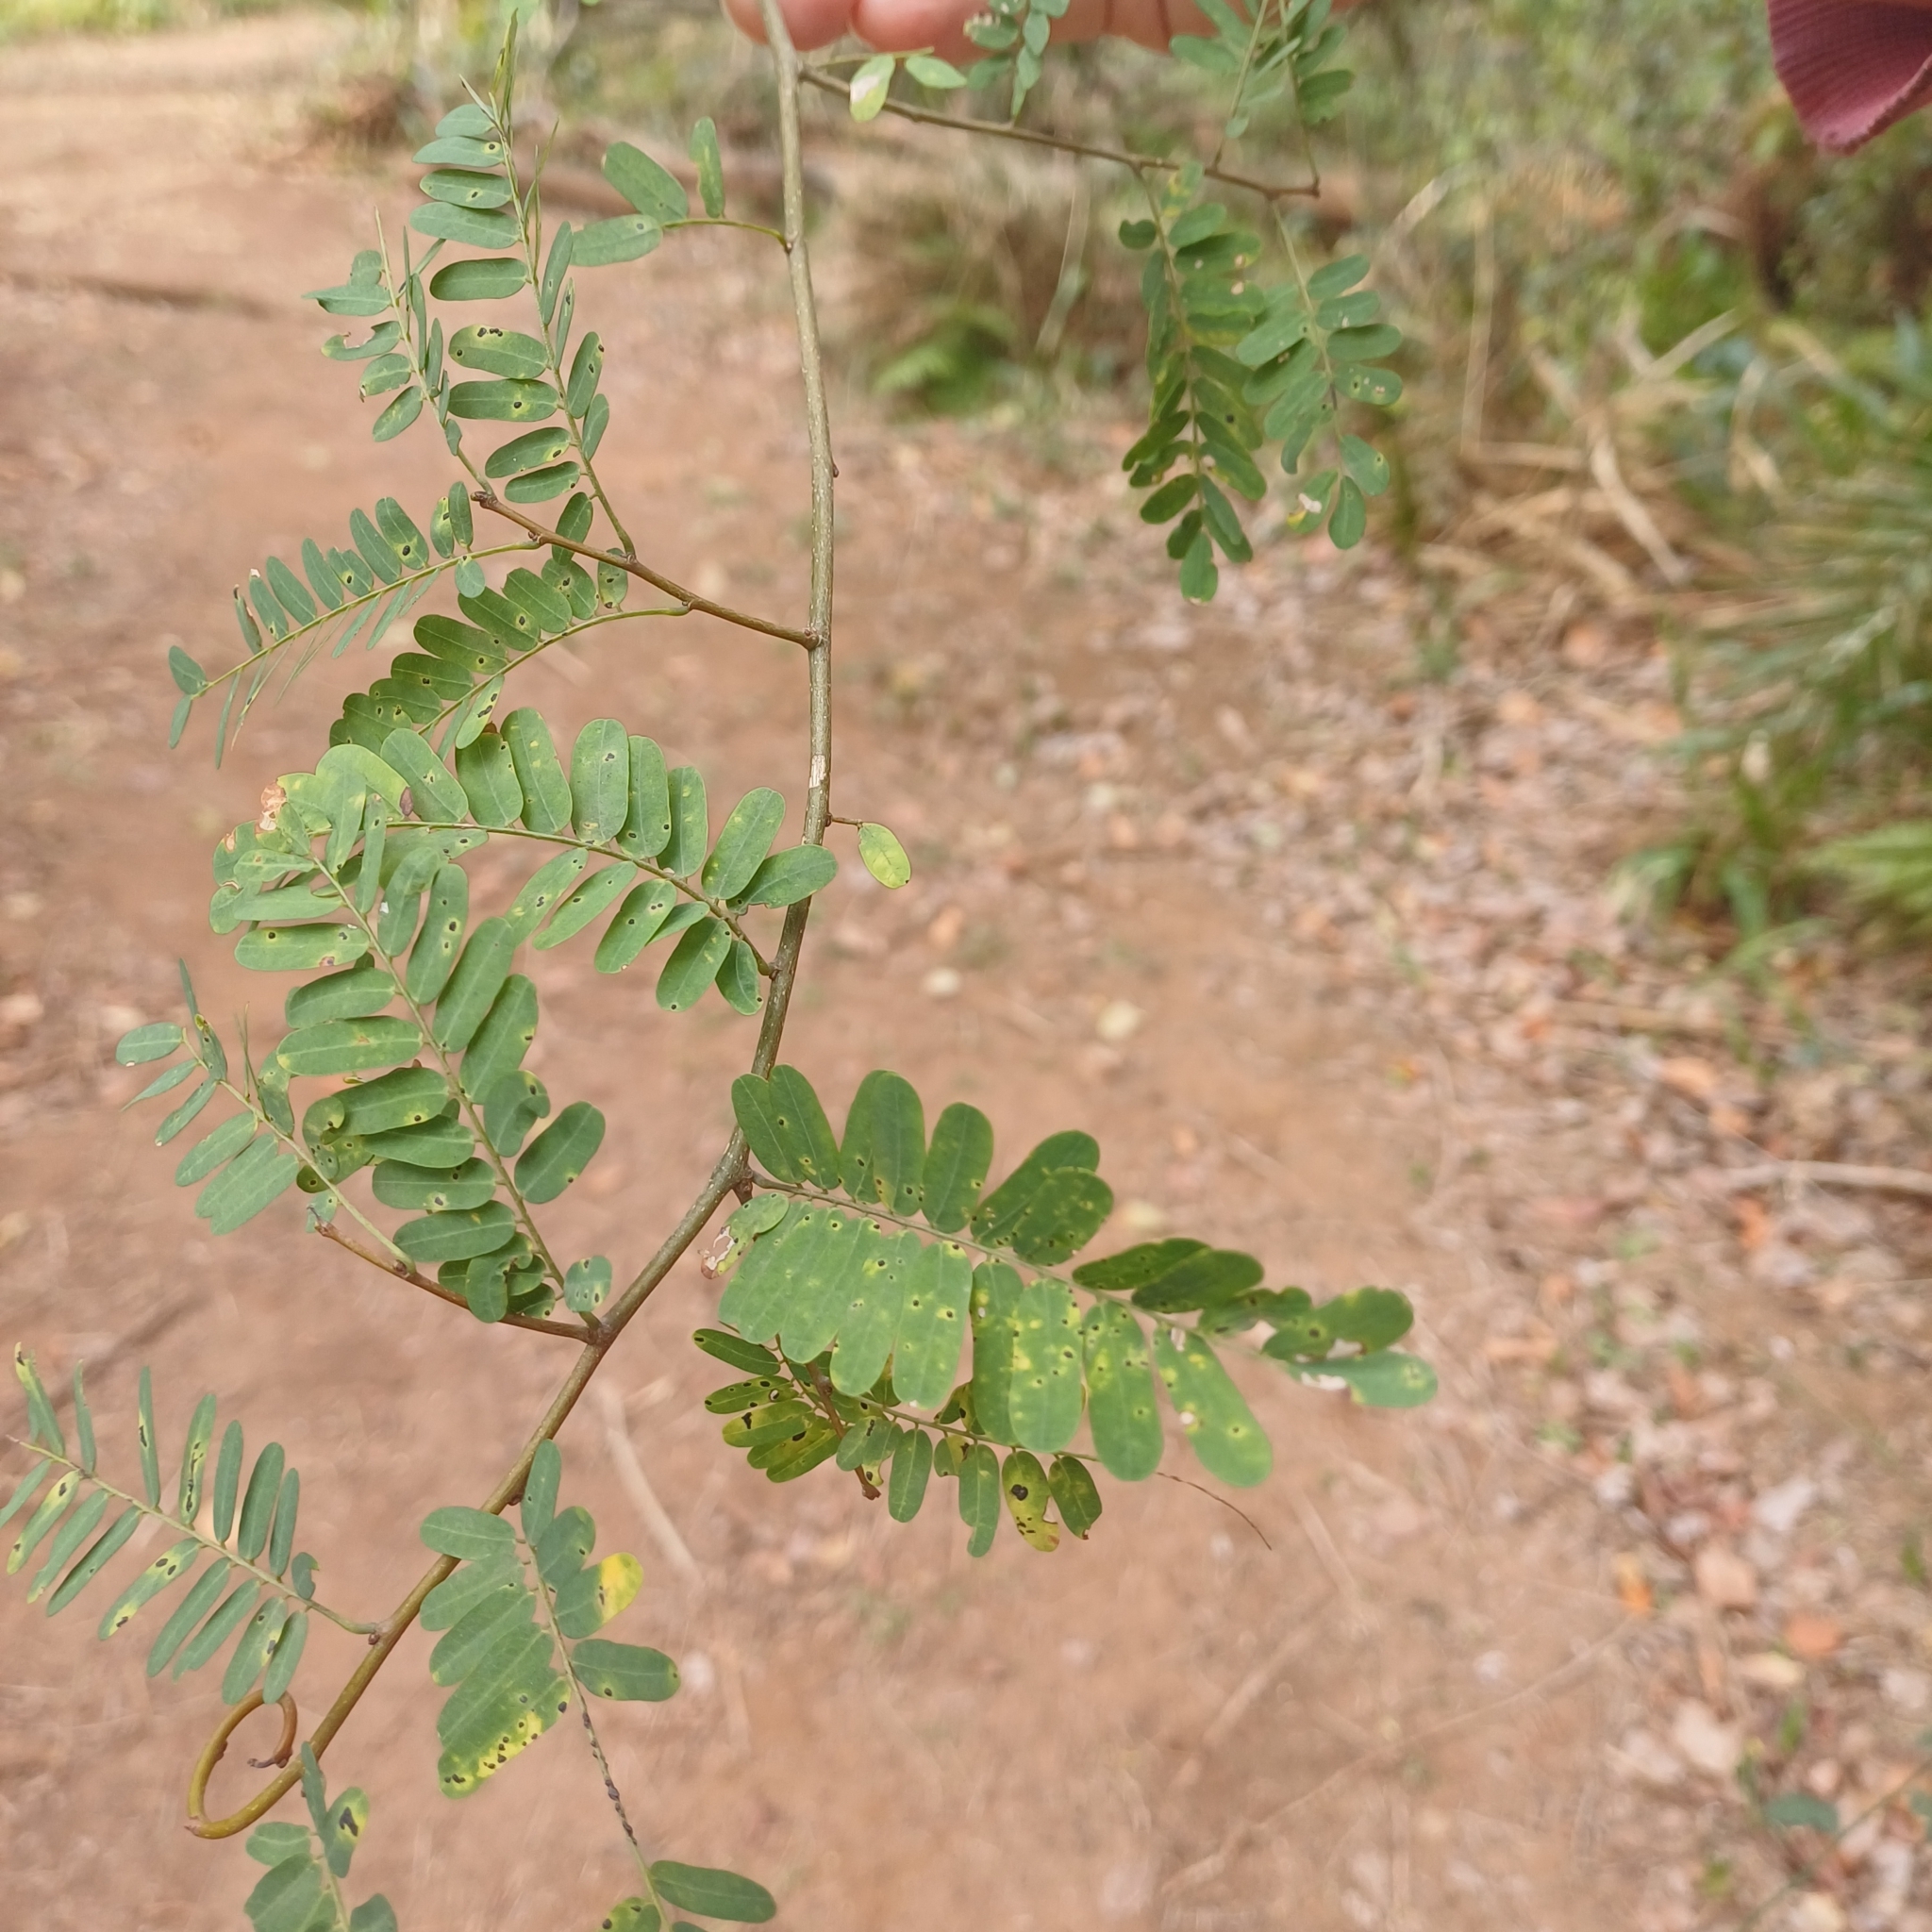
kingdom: Plantae
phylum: Tracheophyta
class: Magnoliopsida
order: Fabales
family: Fabaceae
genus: Dalbergia
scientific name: Dalbergia armata
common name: Hluhluwe climber
